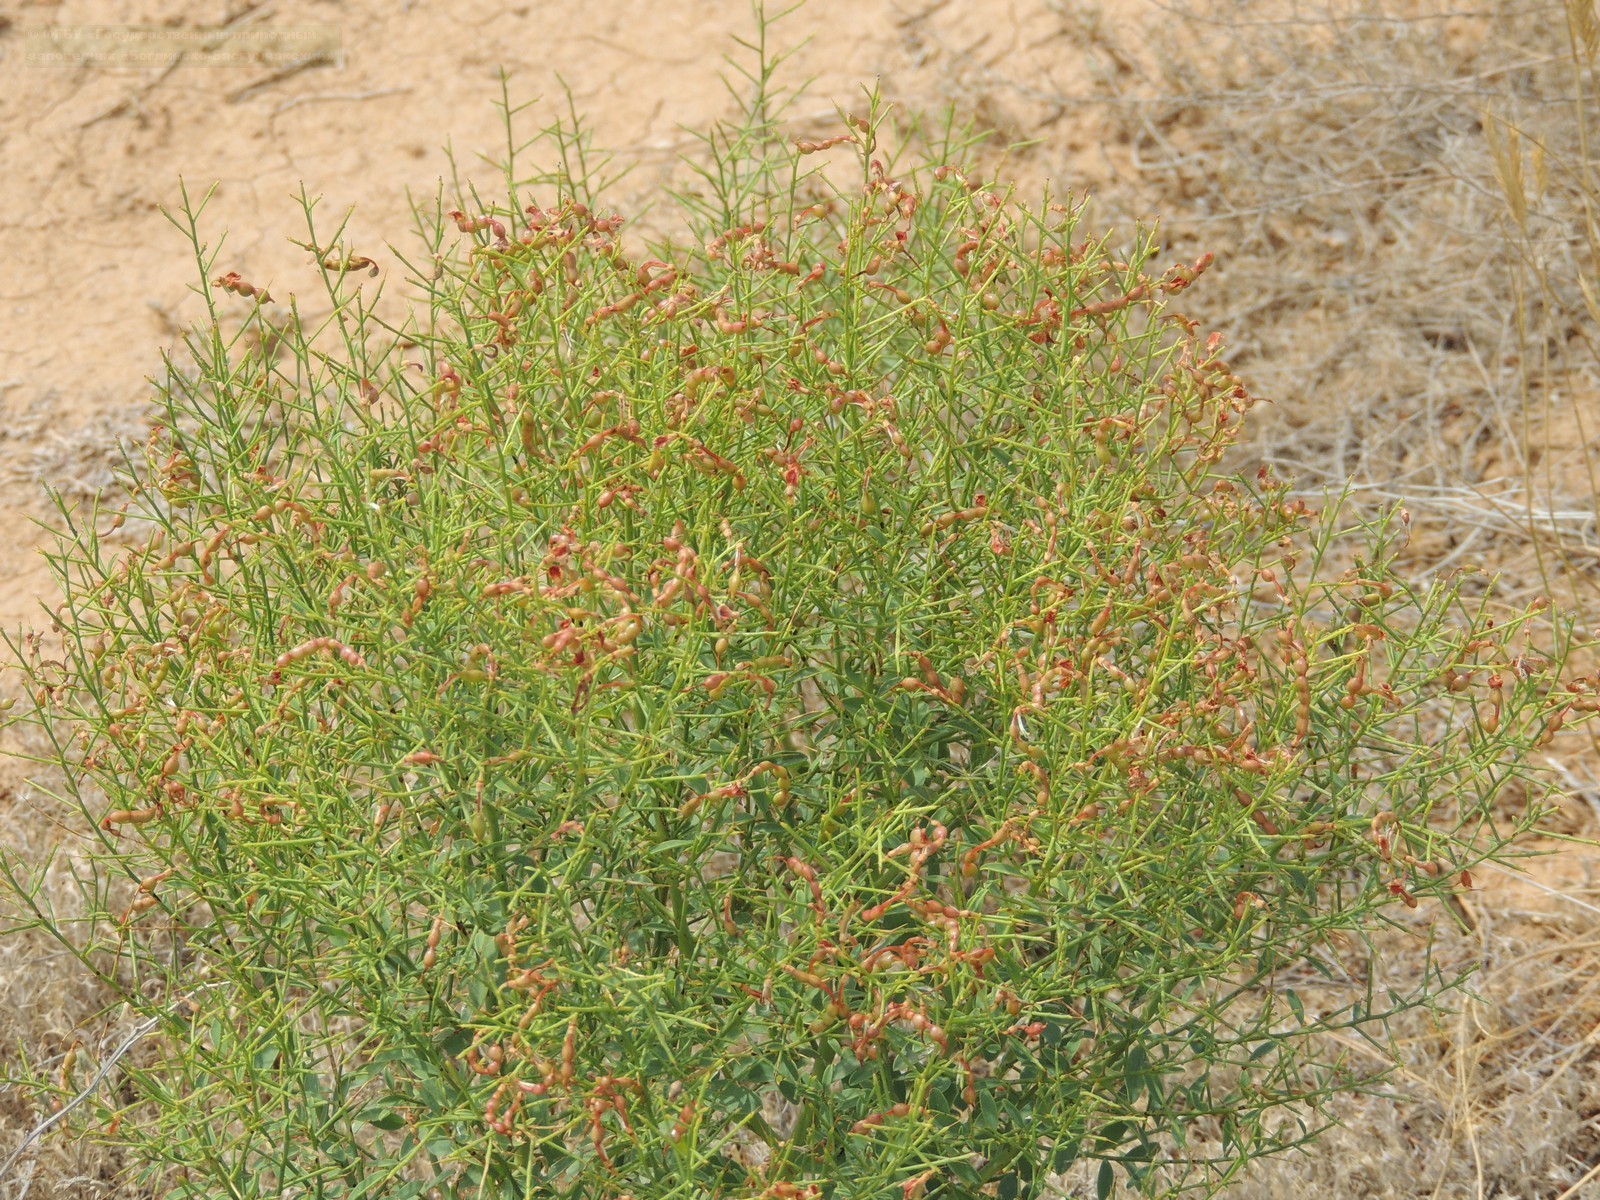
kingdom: Plantae
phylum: Tracheophyta
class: Magnoliopsida
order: Fabales
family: Fabaceae
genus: Alhagi
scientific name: Alhagi pseudalhagi
